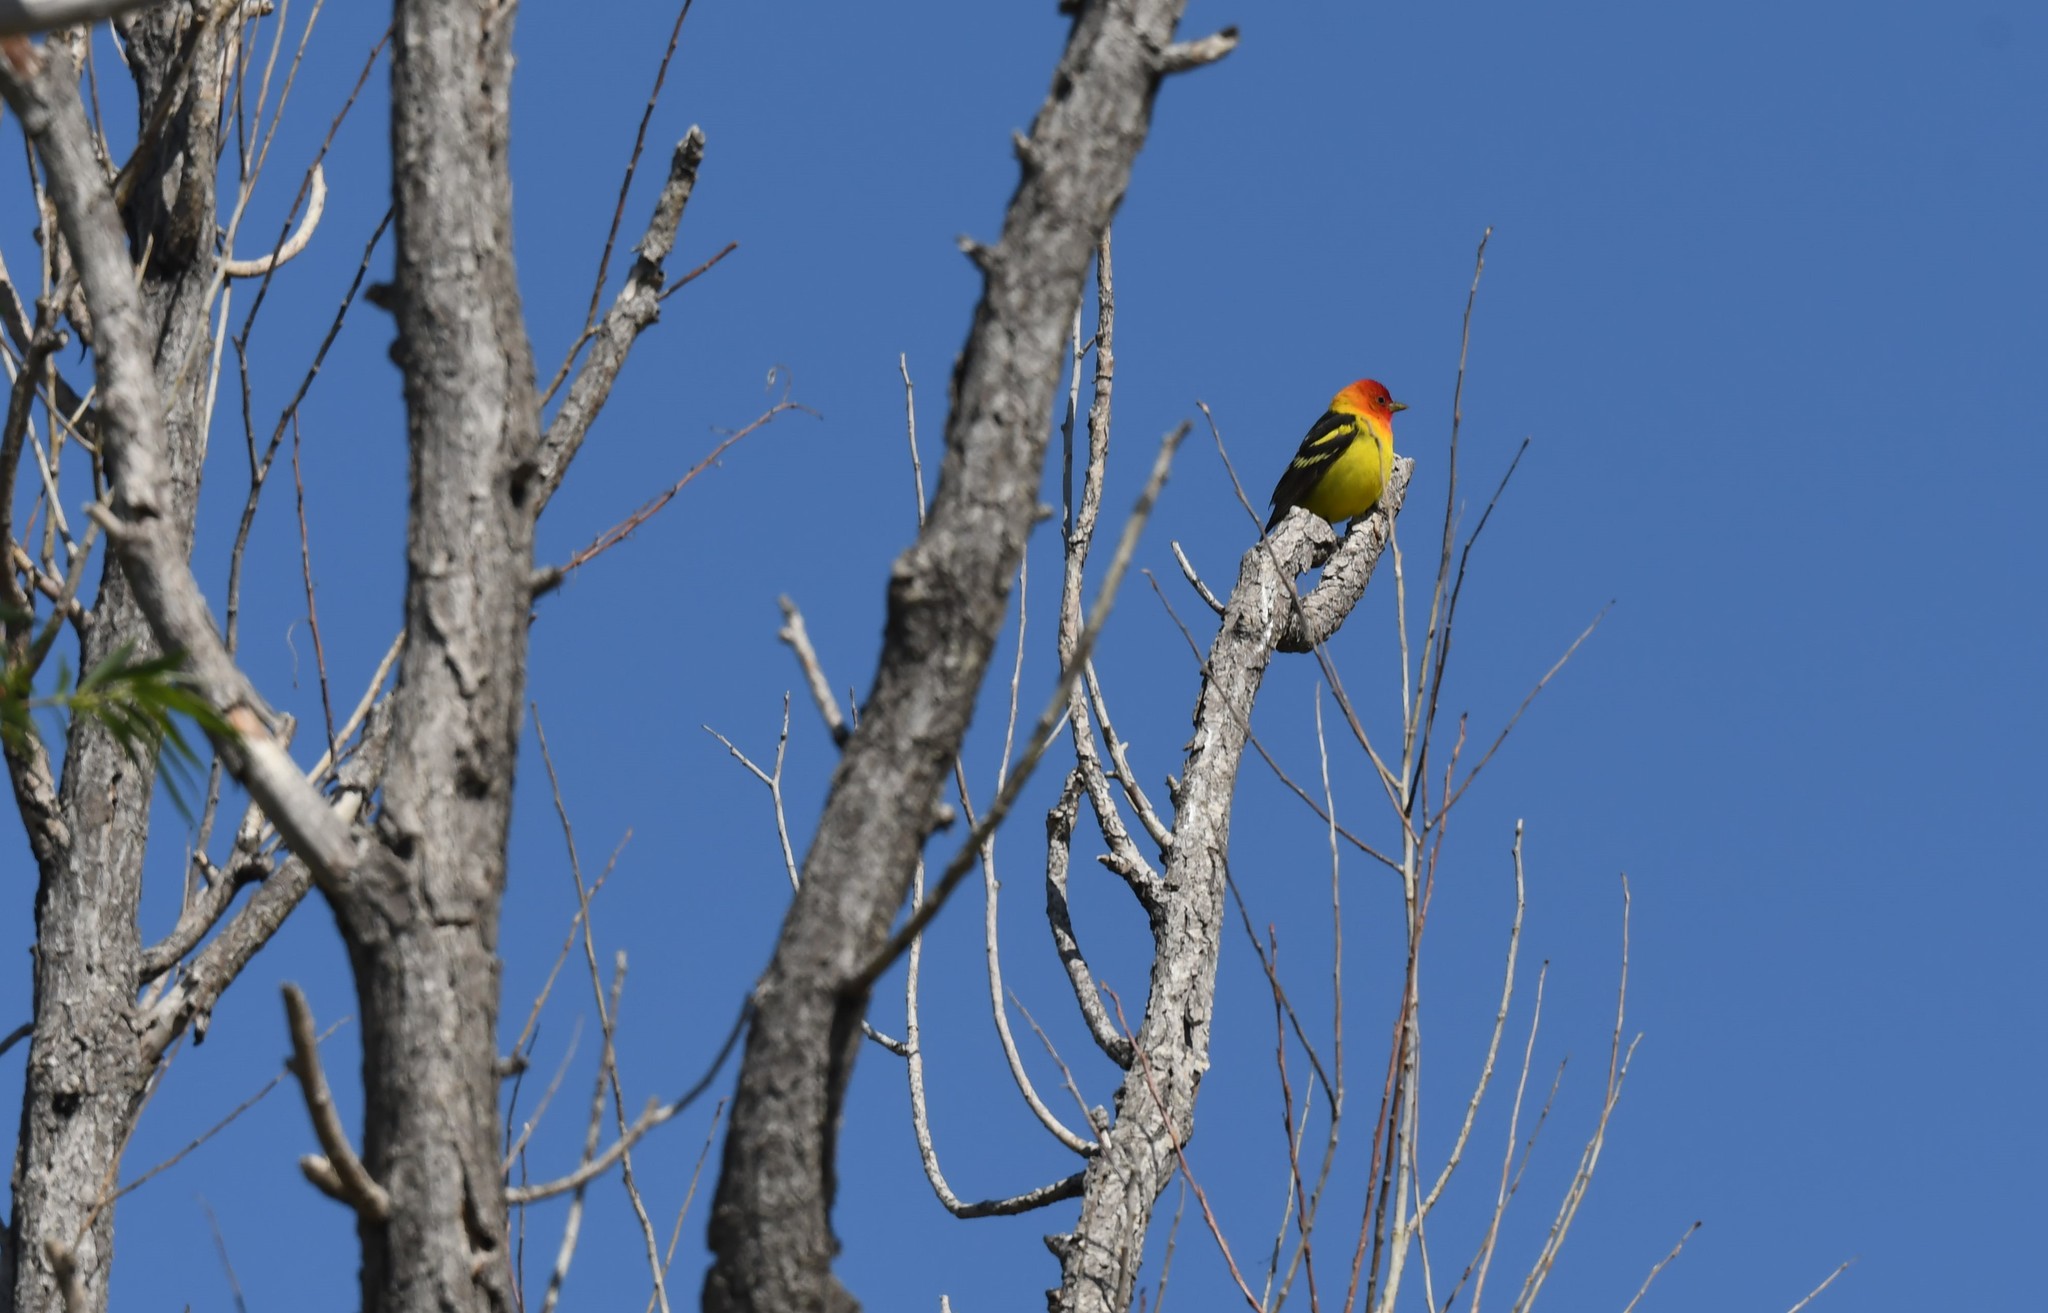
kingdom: Animalia
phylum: Chordata
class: Aves
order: Passeriformes
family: Cardinalidae
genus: Piranga
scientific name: Piranga ludoviciana
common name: Western tanager
